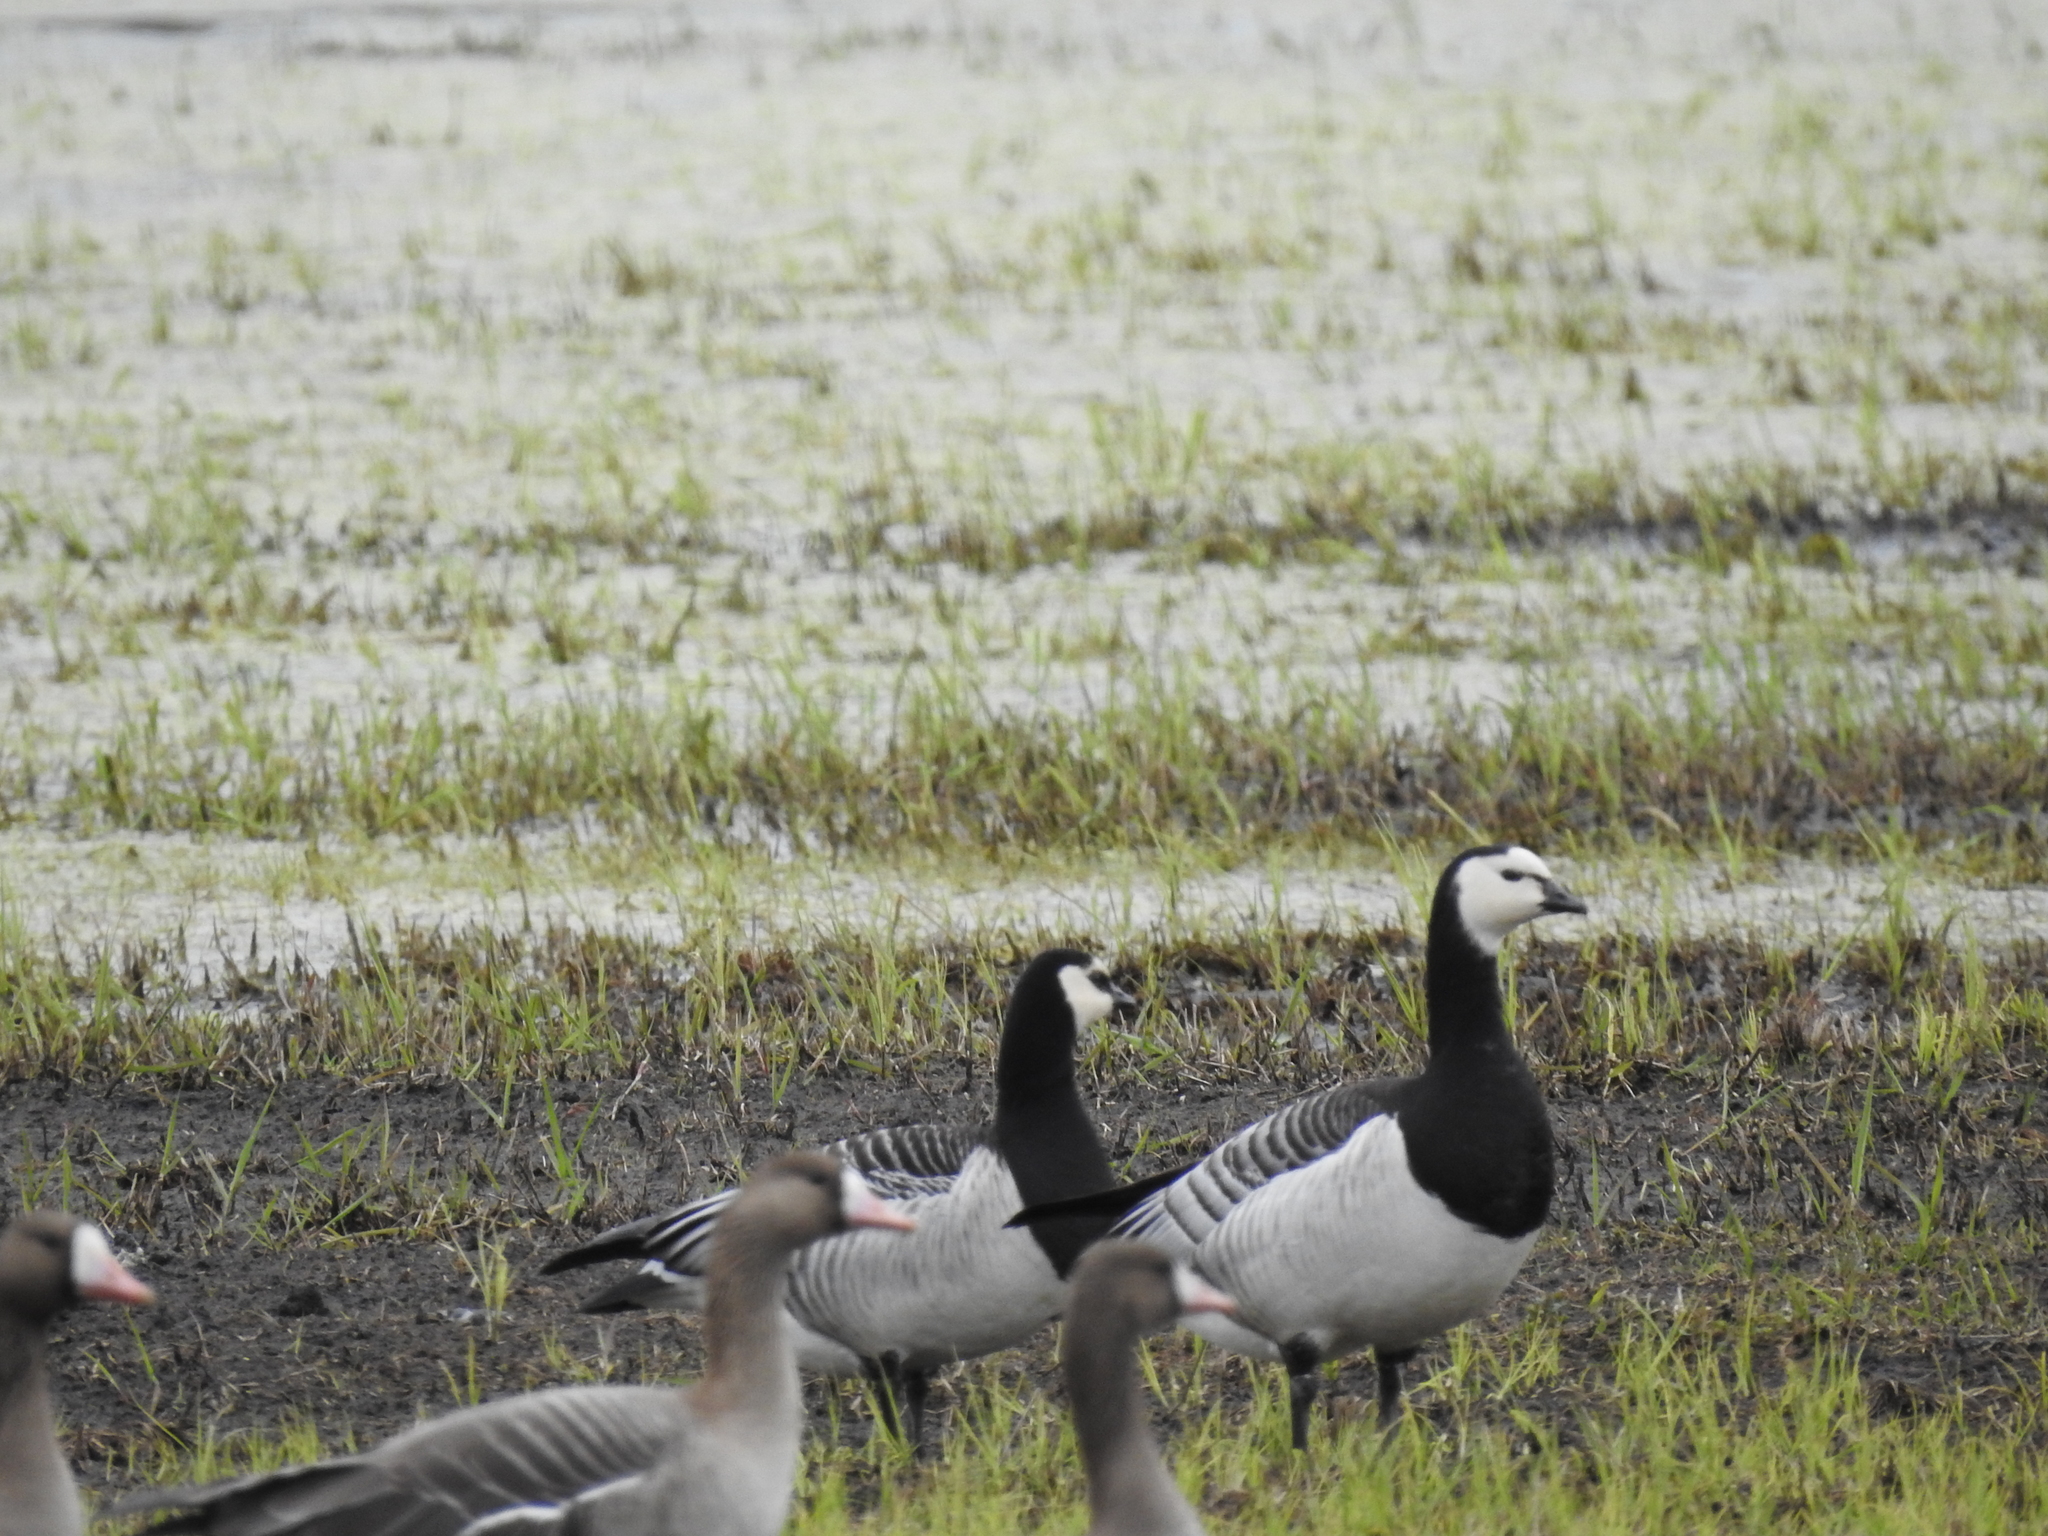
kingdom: Animalia
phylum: Chordata
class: Aves
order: Anseriformes
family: Anatidae
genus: Branta
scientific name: Branta leucopsis
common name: Barnacle goose
